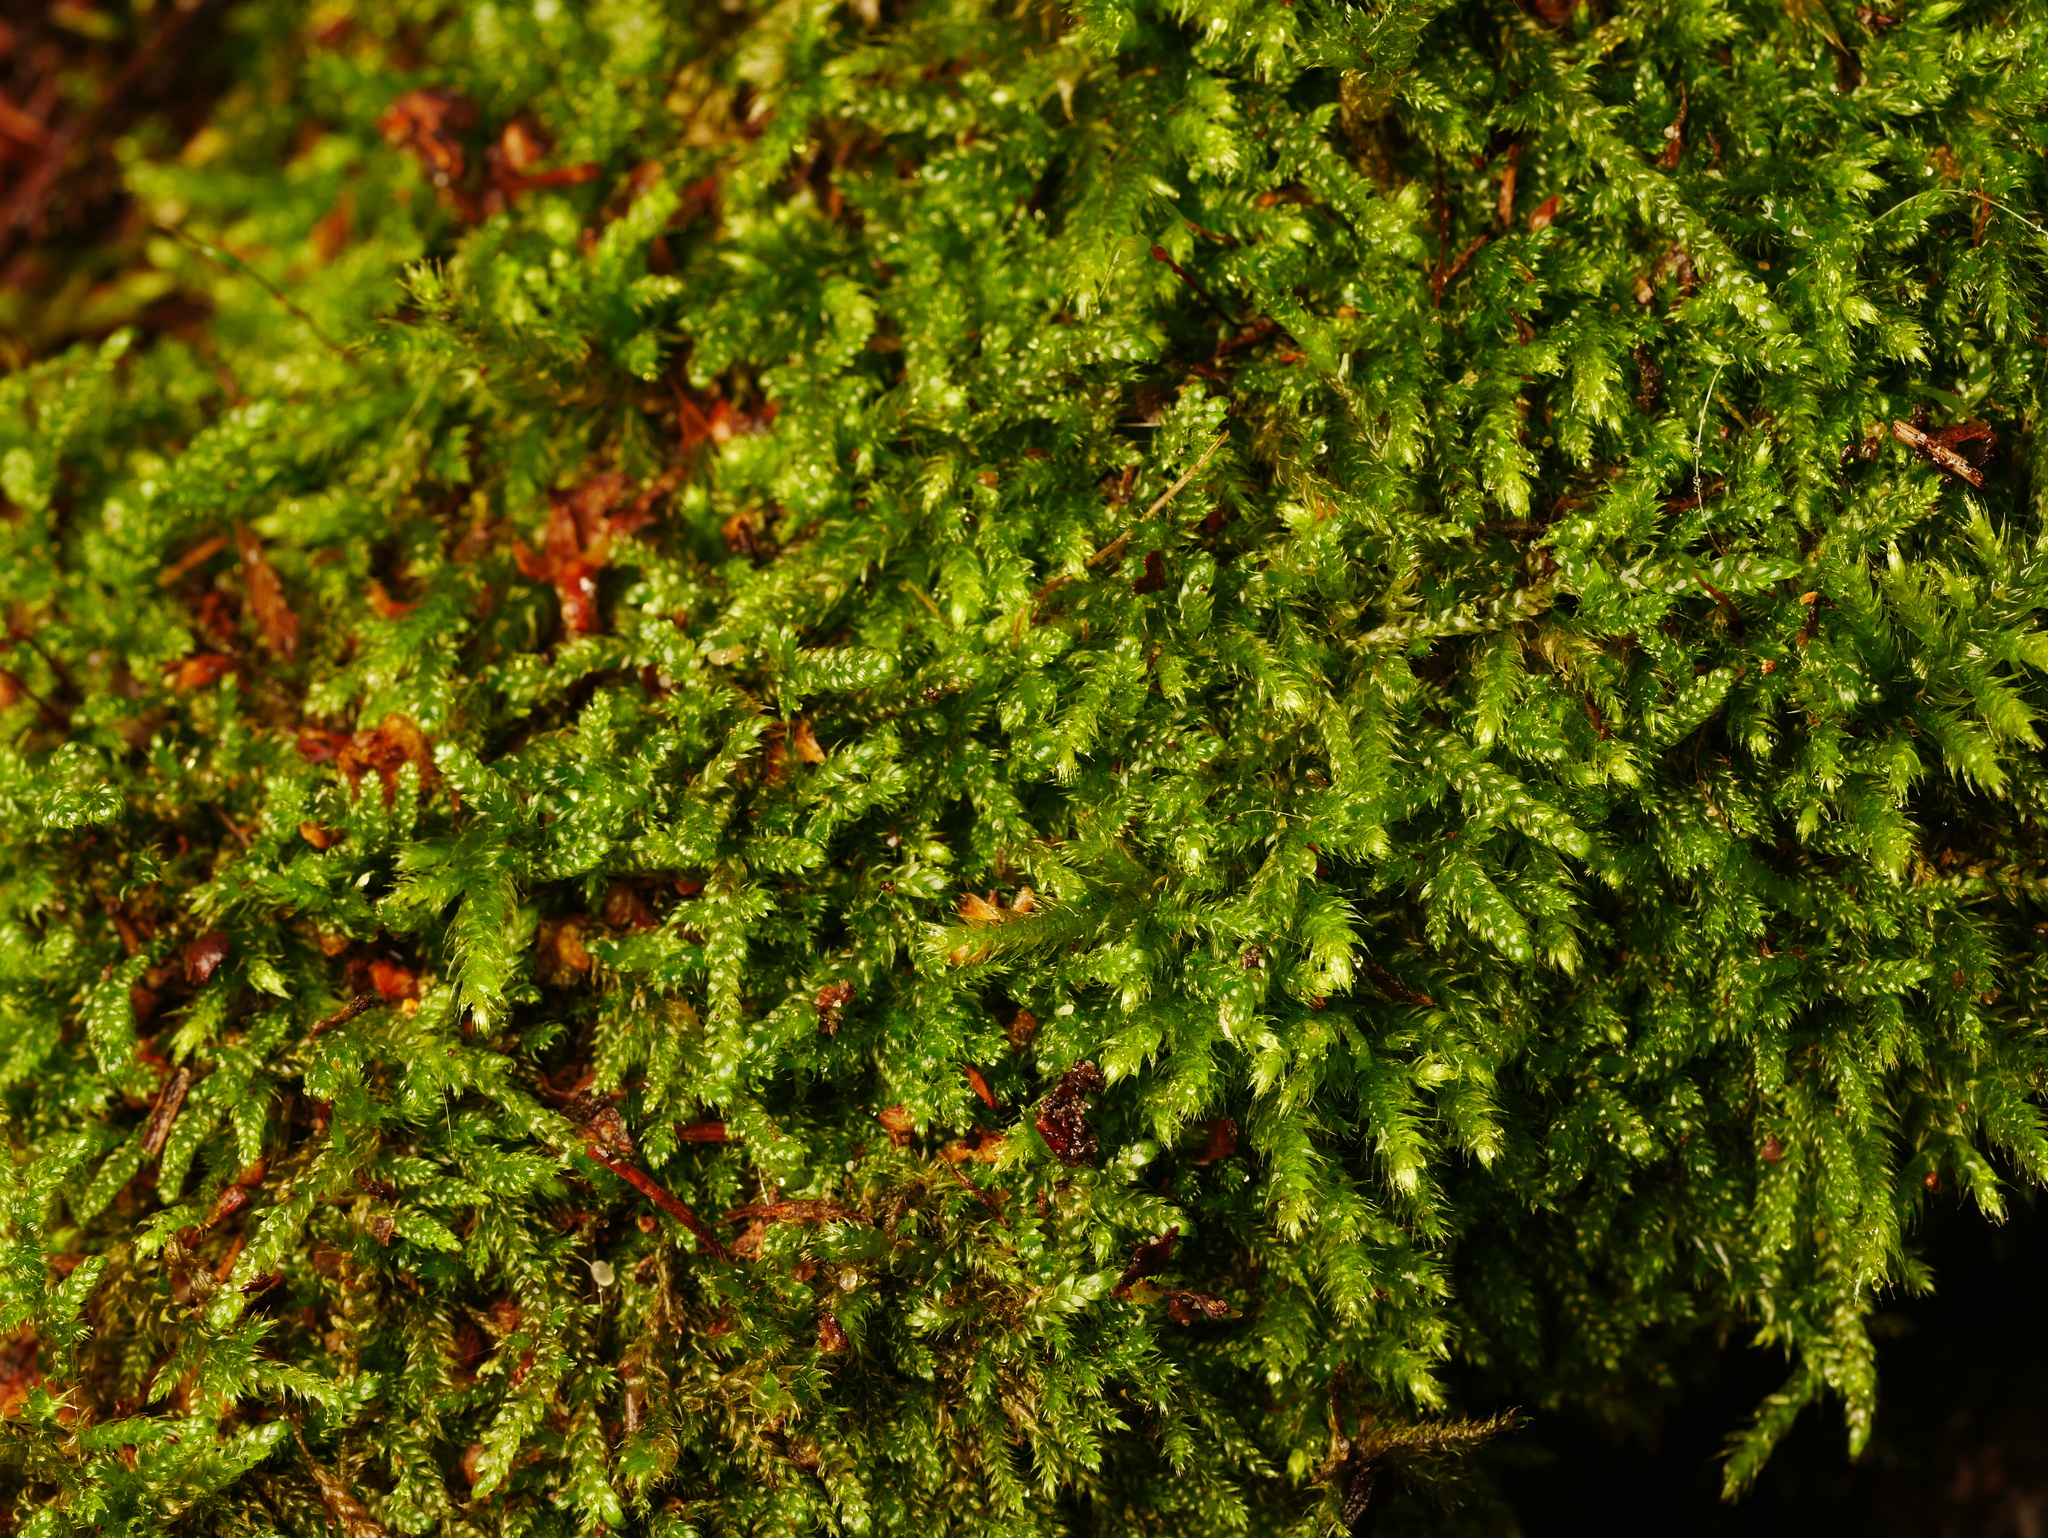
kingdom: Plantae
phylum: Bryophyta
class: Bryopsida
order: Hypnales
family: Hypnaceae
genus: Hypnum
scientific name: Hypnum cupressiforme
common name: Cypress-leaved plait-moss
